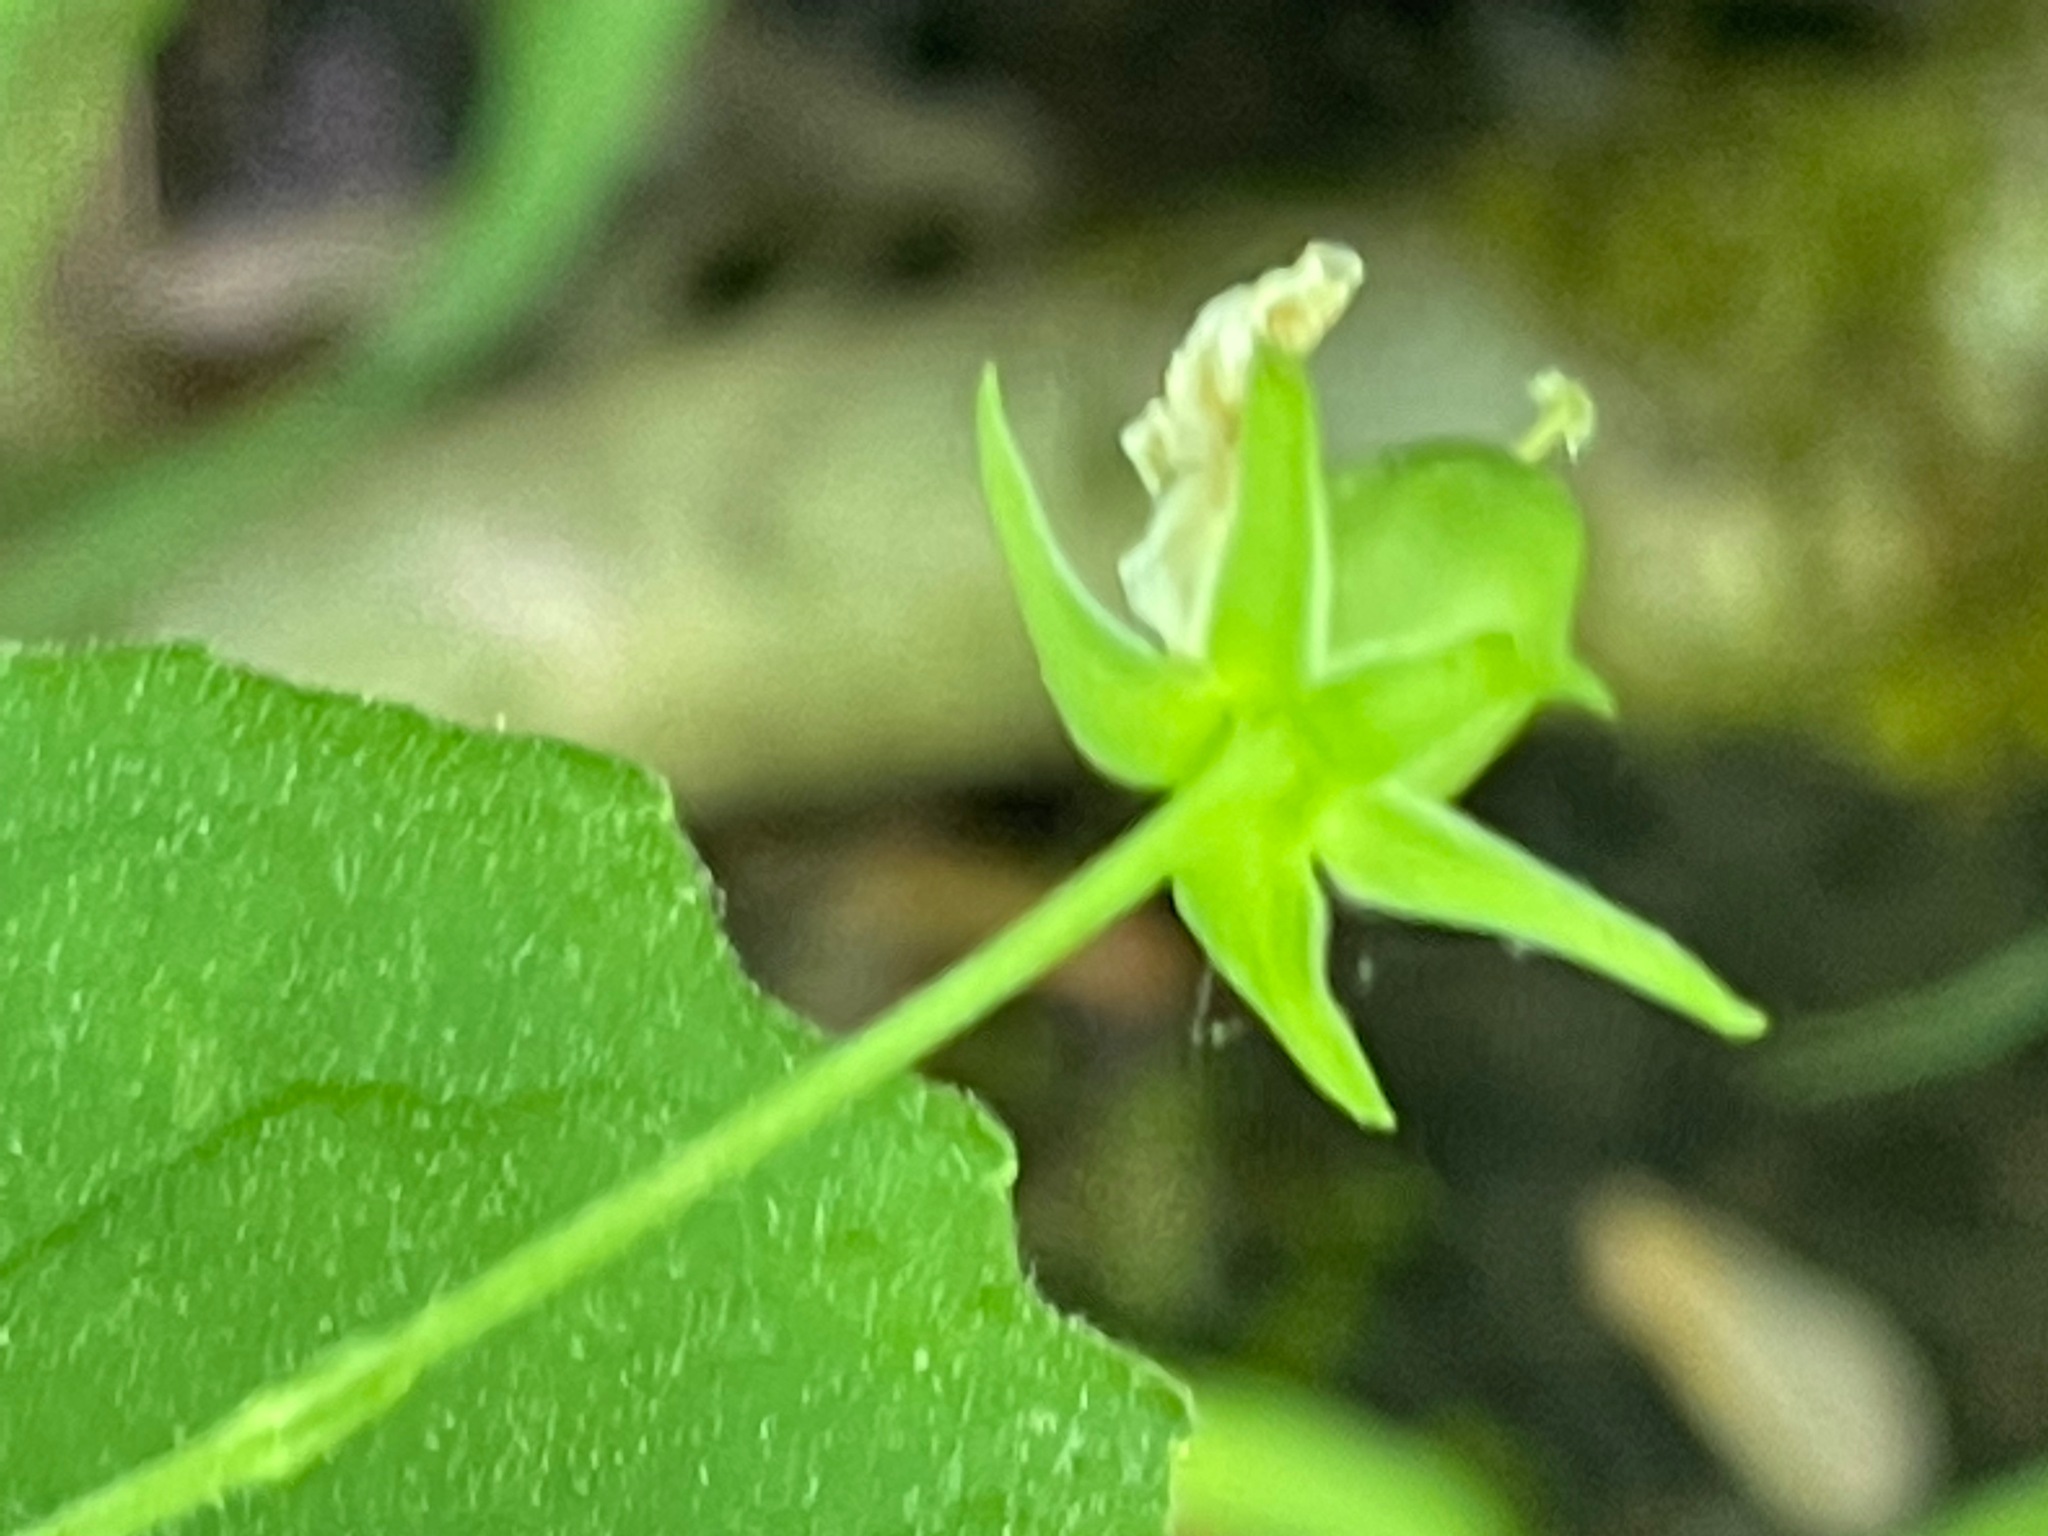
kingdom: Plantae
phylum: Tracheophyta
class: Magnoliopsida
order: Malpighiales
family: Violaceae
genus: Viola
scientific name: Viola eriocarpa
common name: Smooth yellow violet
